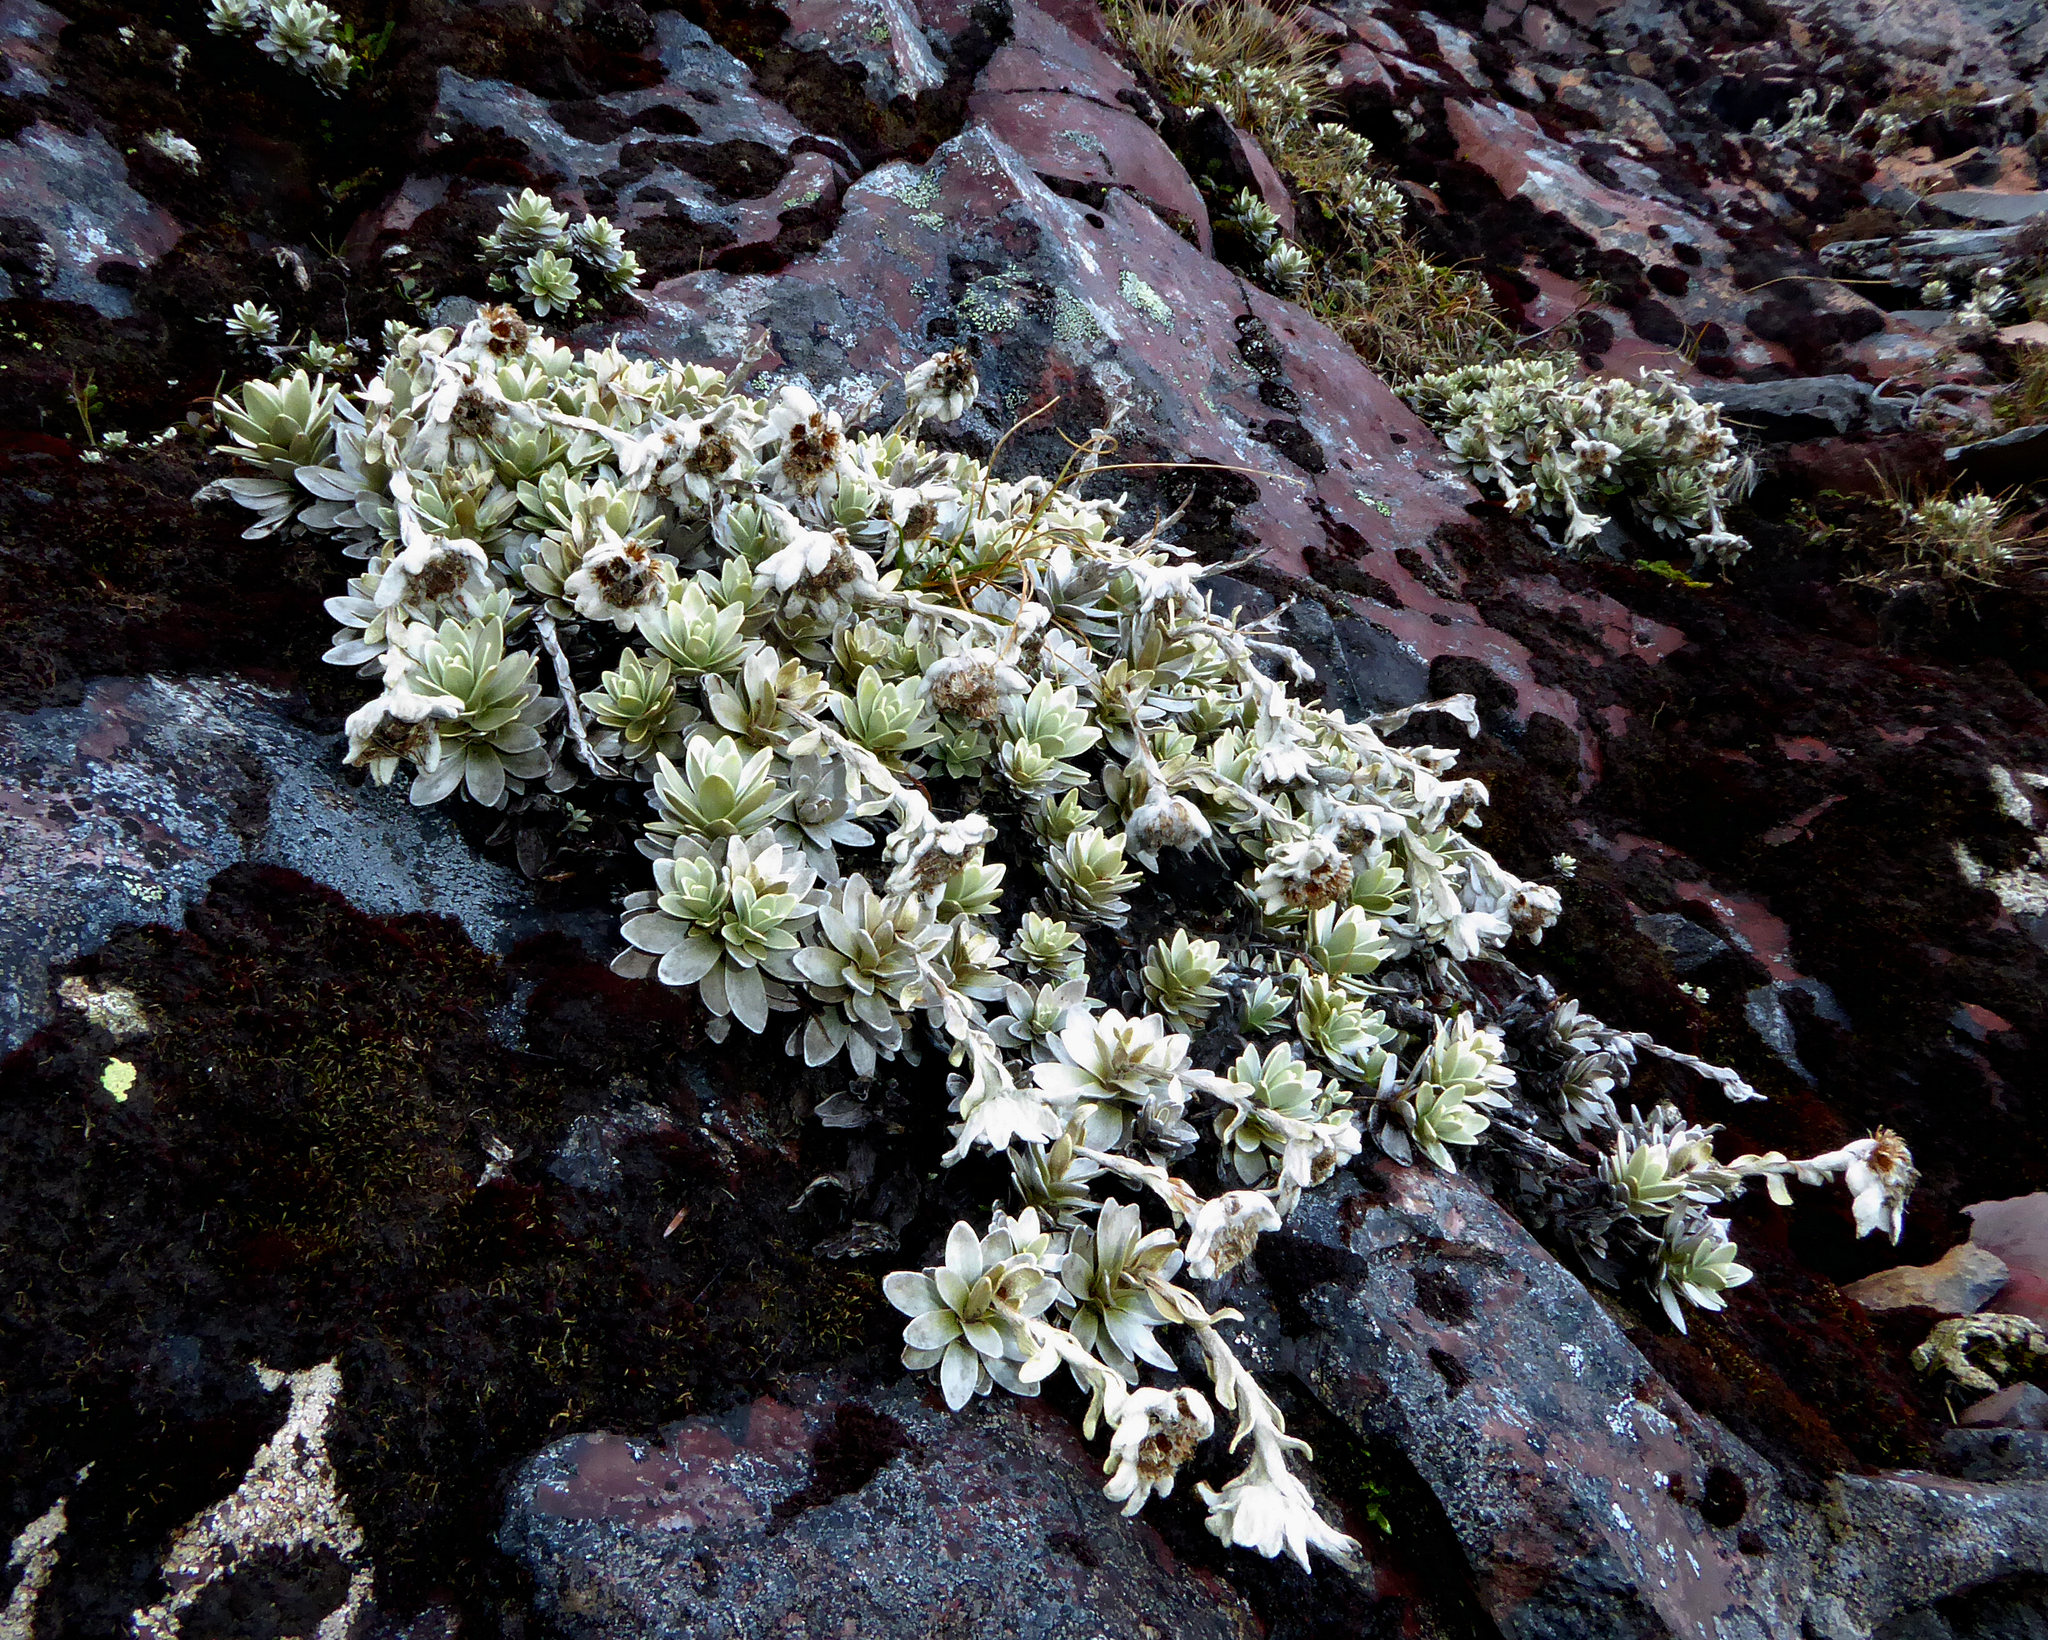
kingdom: Plantae
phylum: Tracheophyta
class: Magnoliopsida
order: Asterales
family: Asteraceae
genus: Leucogenes
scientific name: Leucogenes leontopodium
